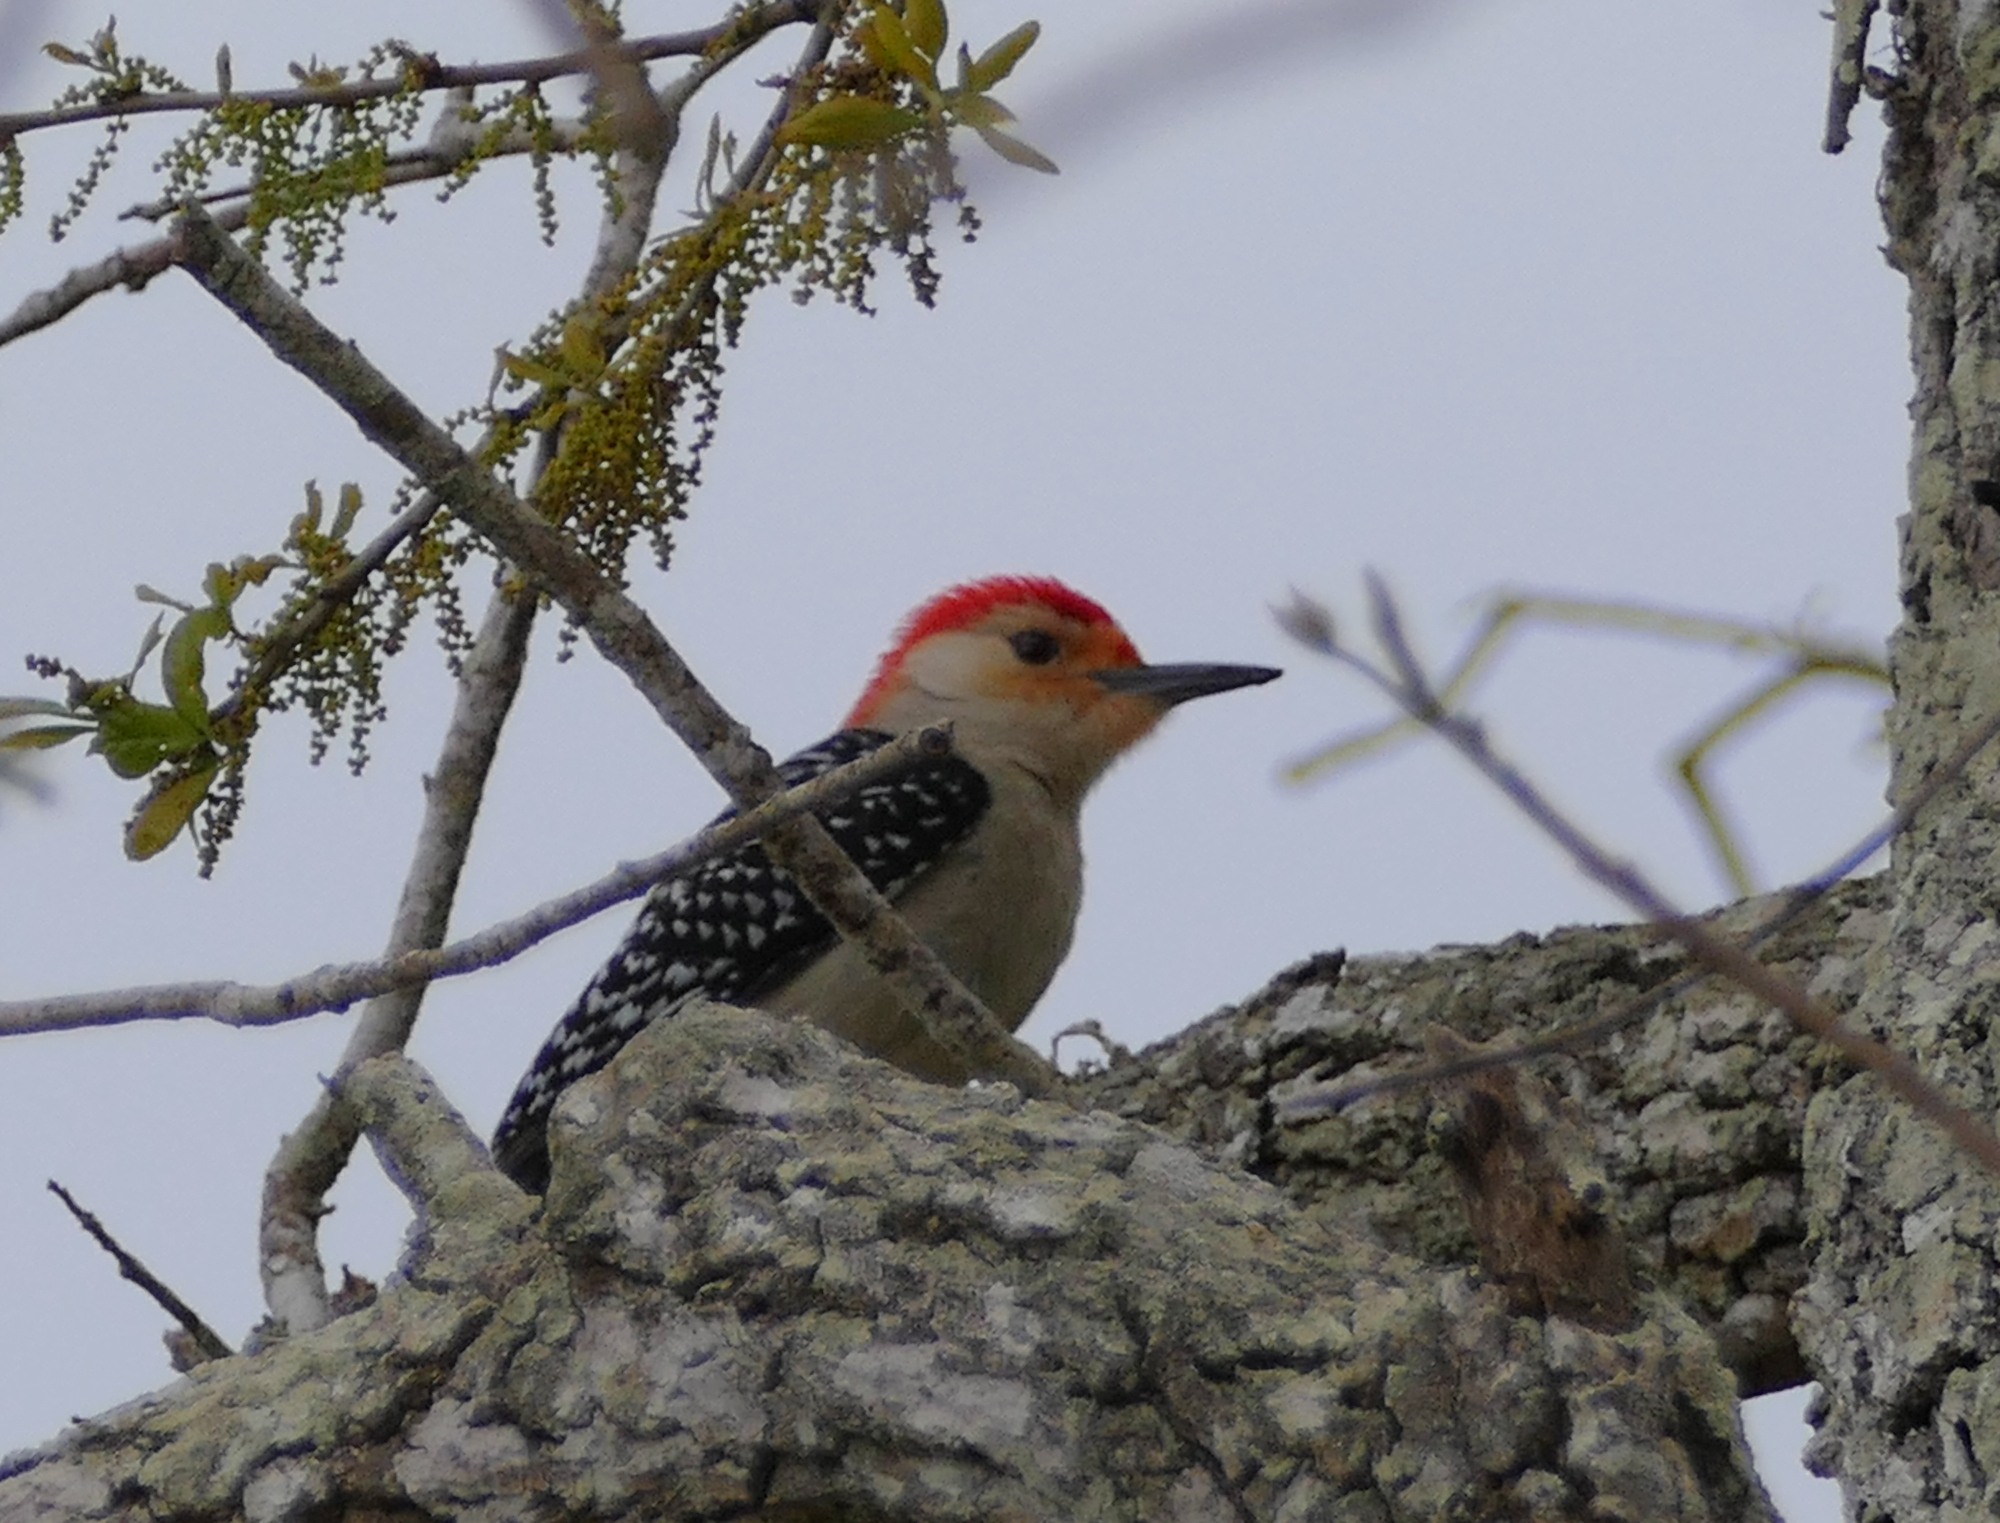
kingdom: Animalia
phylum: Chordata
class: Aves
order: Piciformes
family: Picidae
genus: Melanerpes
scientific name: Melanerpes carolinus
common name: Red-bellied woodpecker
